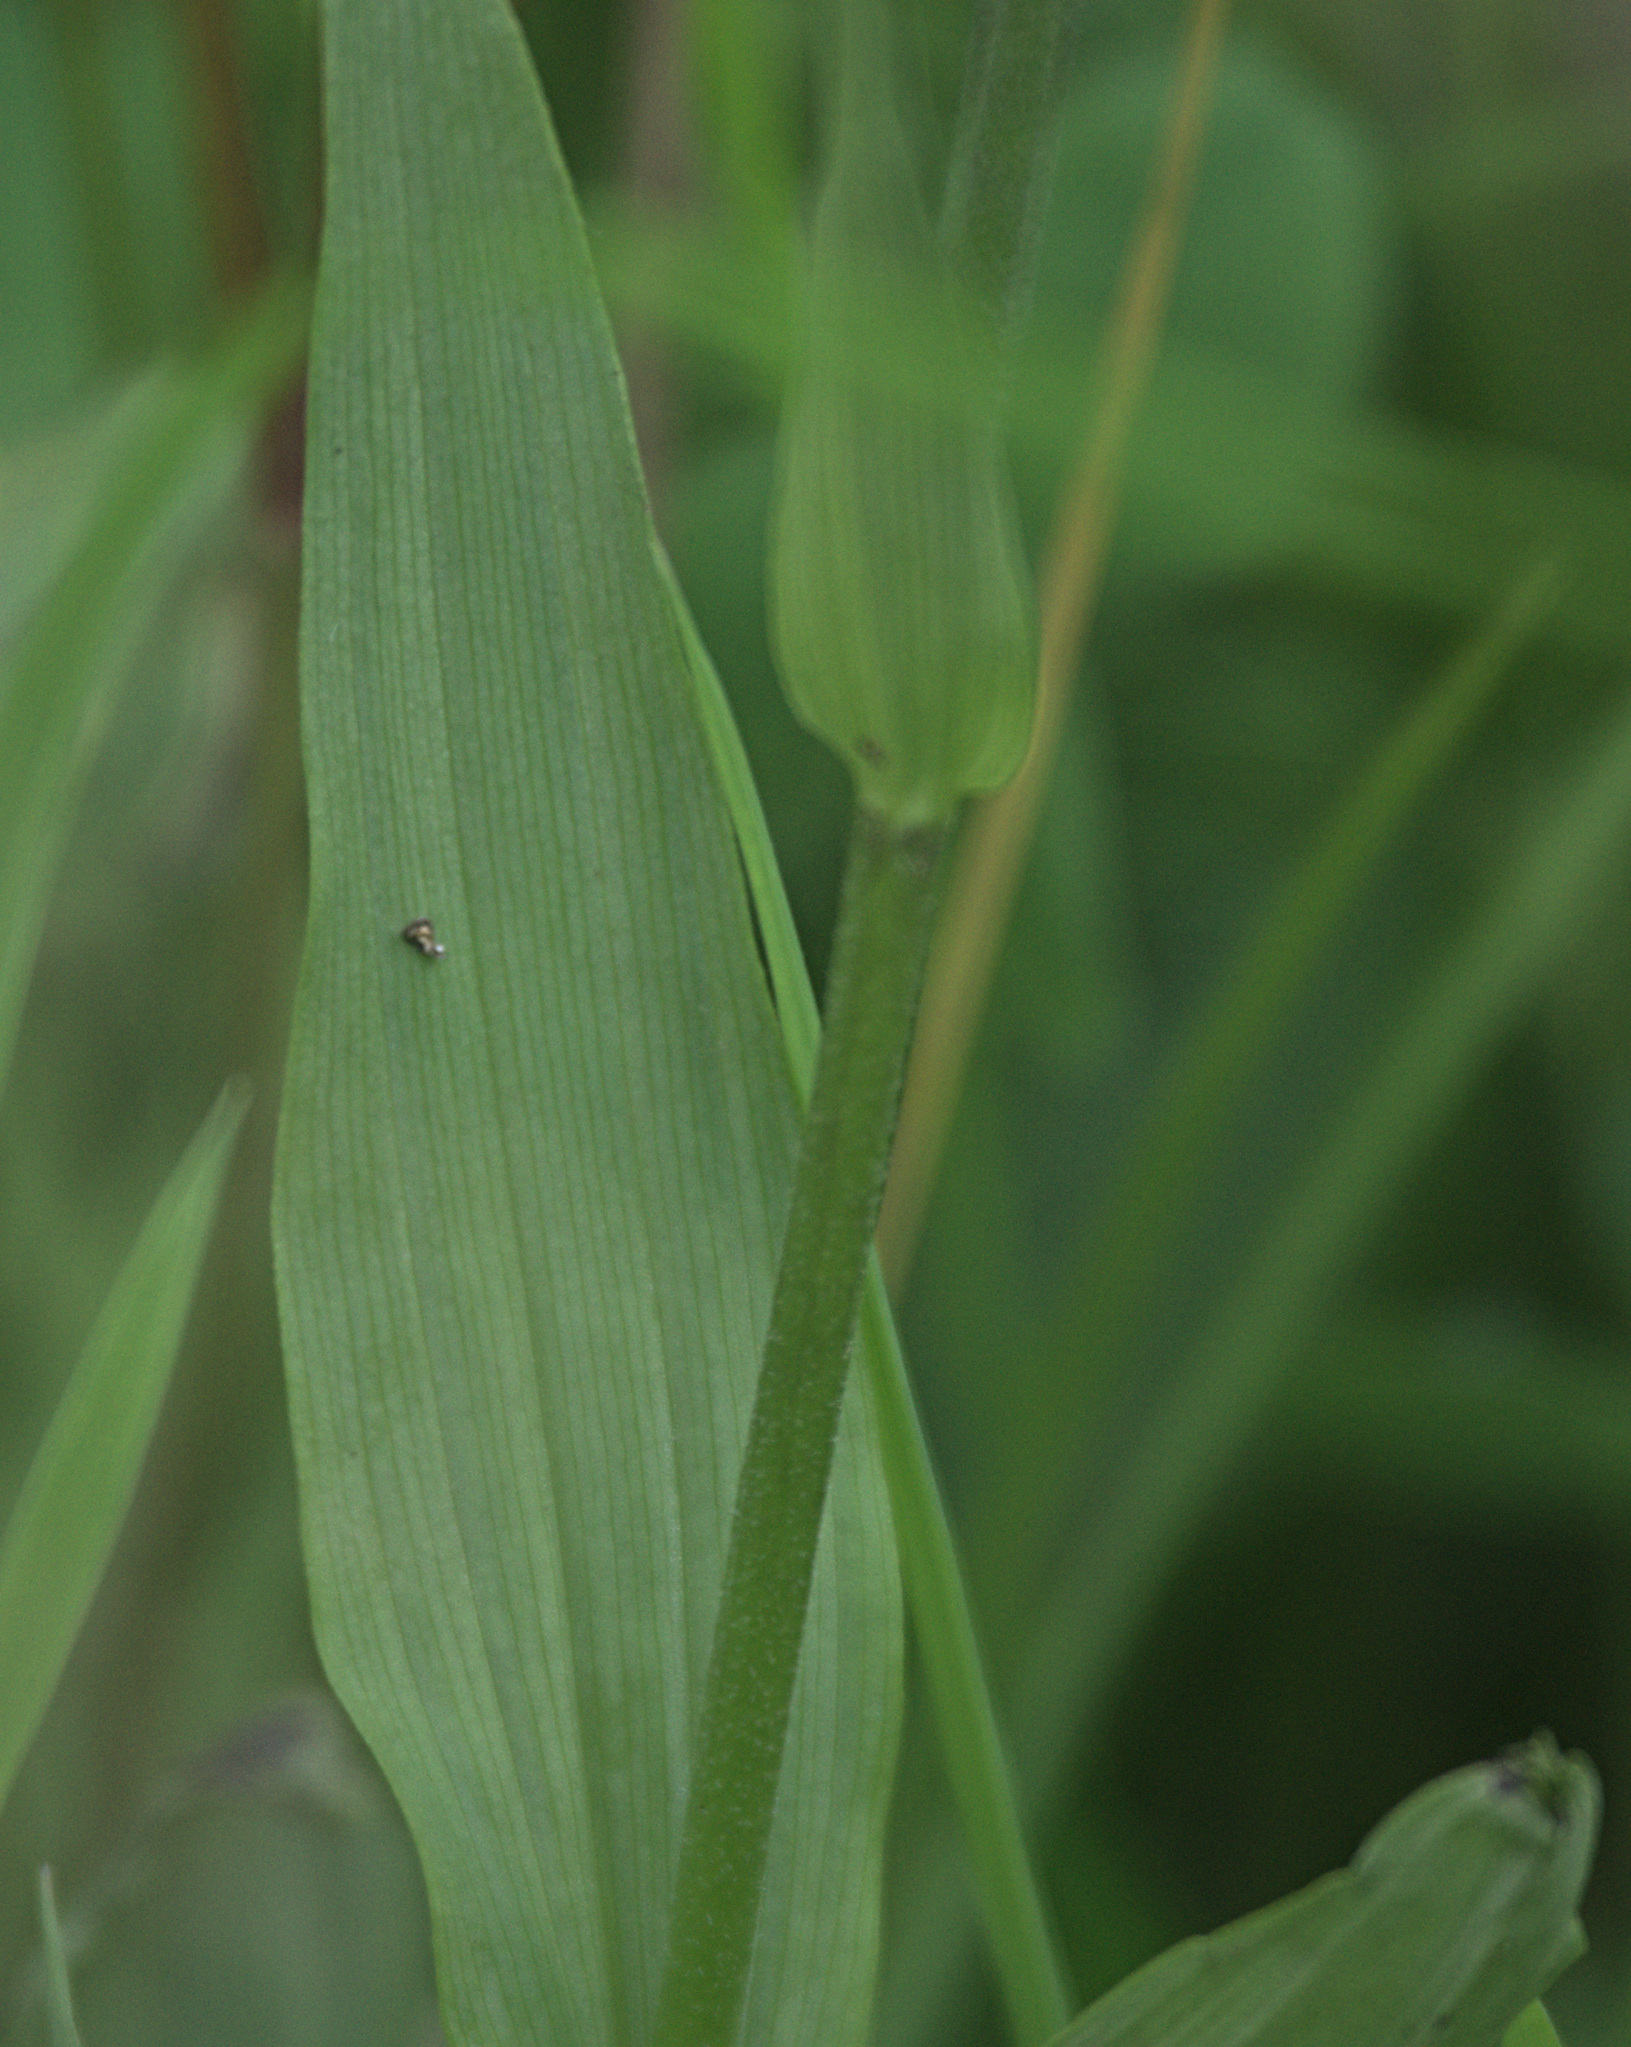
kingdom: Plantae
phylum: Tracheophyta
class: Liliopsida
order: Asparagales
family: Orchidaceae
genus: Epipactis
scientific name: Epipactis palustris
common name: Marsh helleborine
